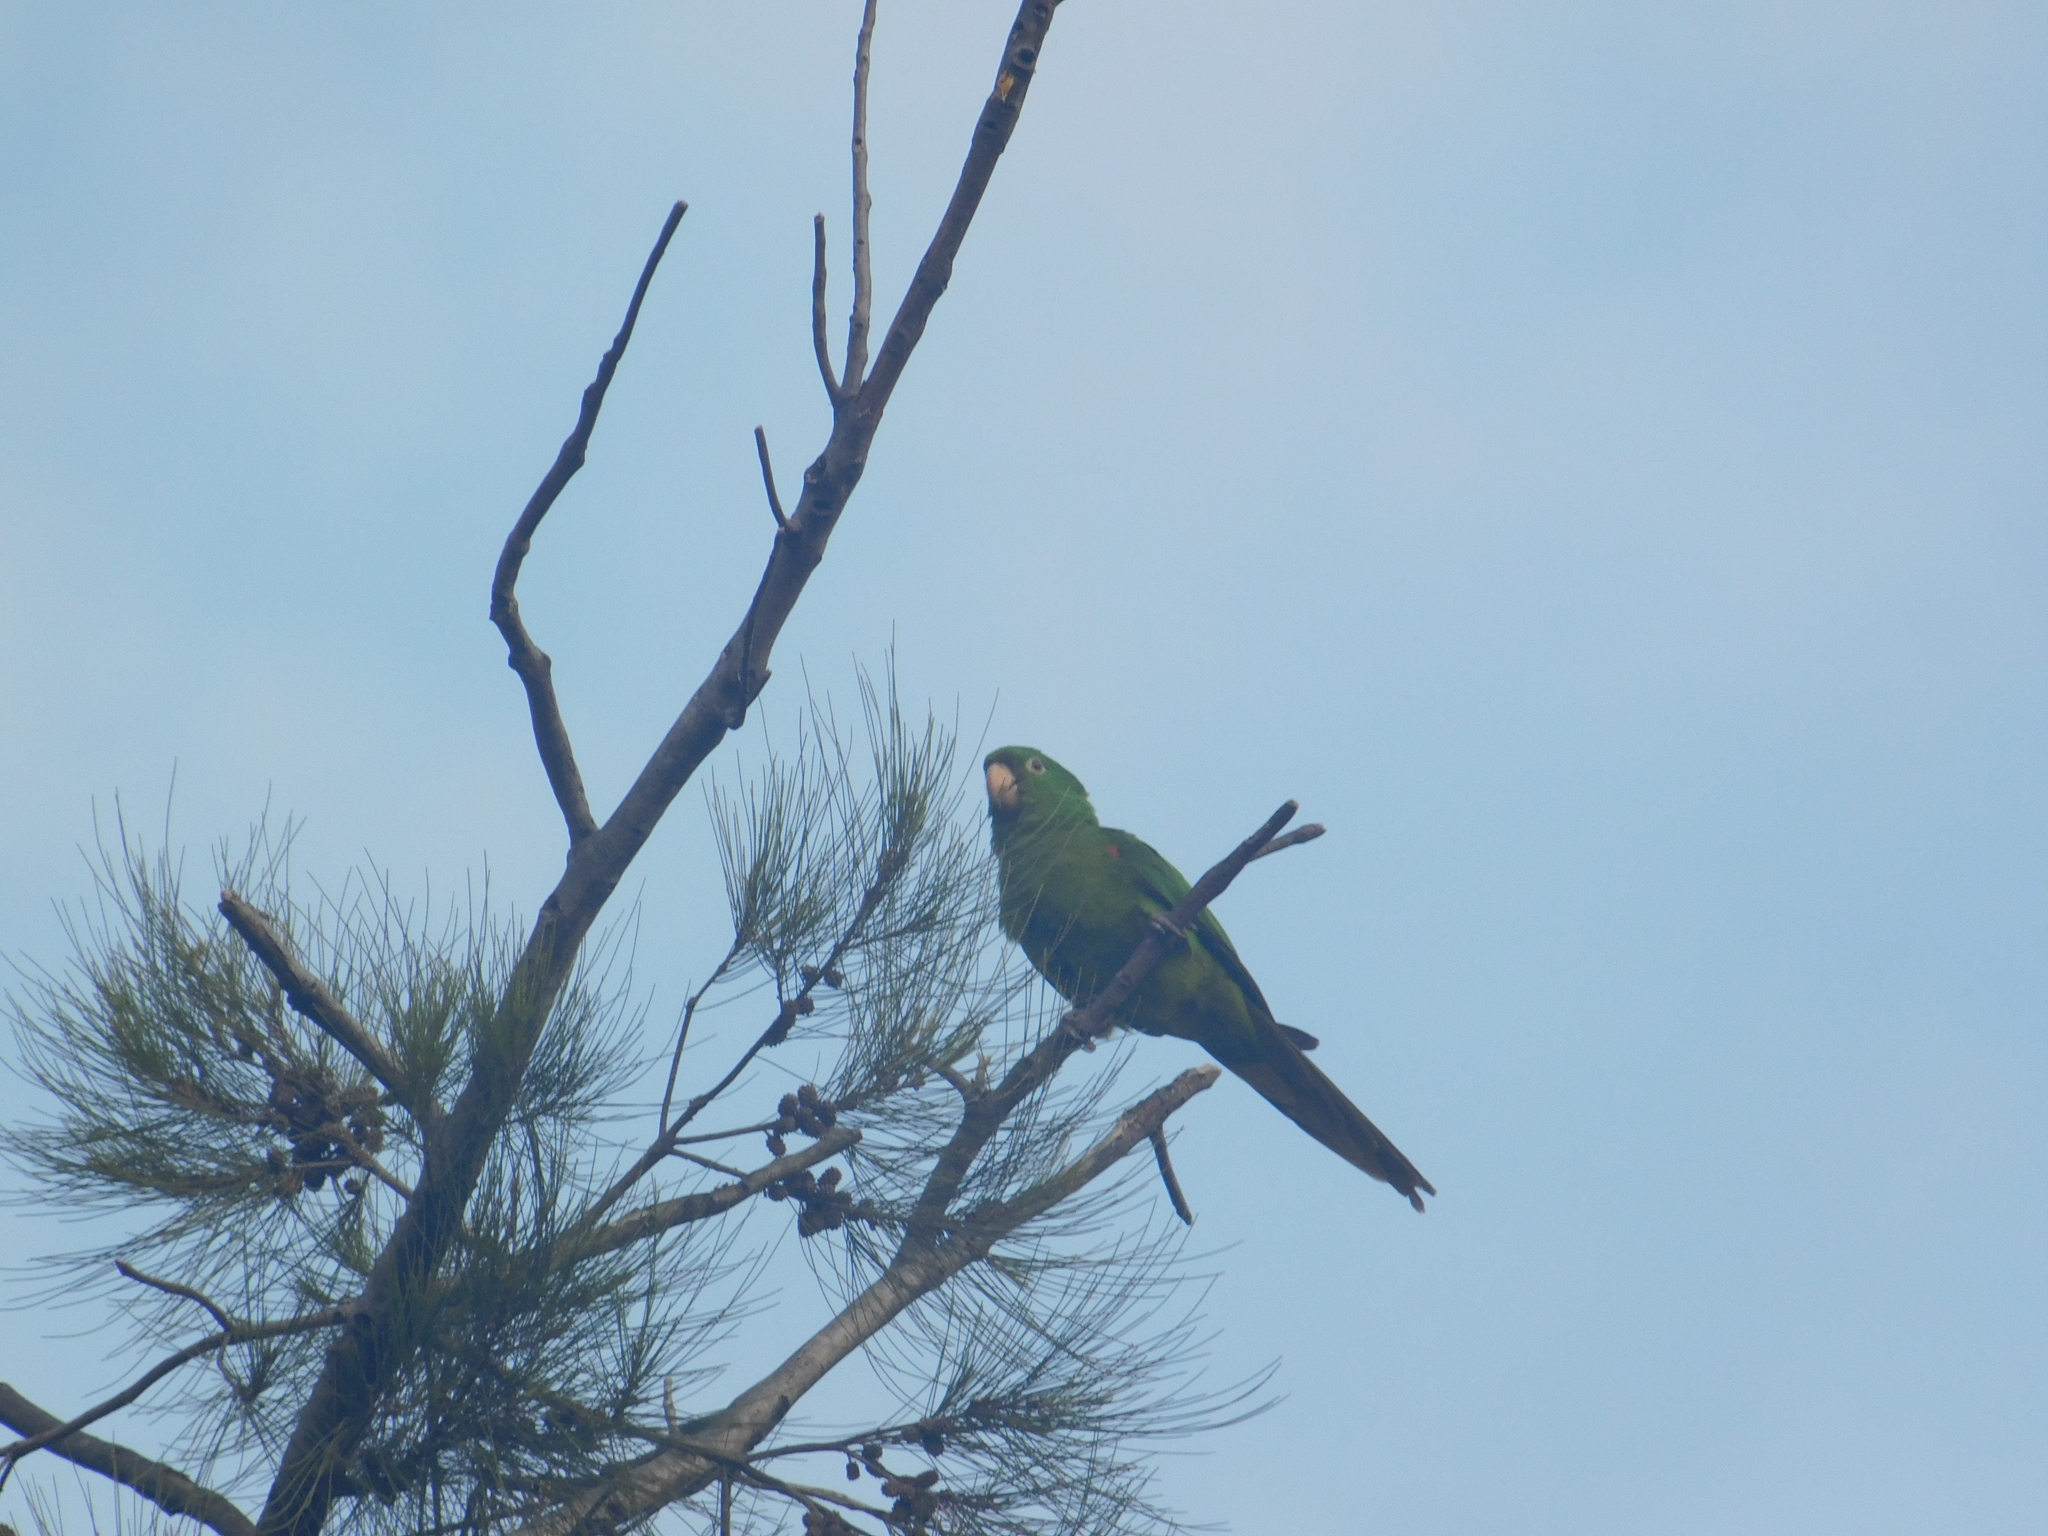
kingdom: Animalia
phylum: Chordata
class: Aves
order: Psittaciformes
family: Psittacidae
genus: Aratinga
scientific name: Aratinga leucophthalma
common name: White-eyed parakeet
